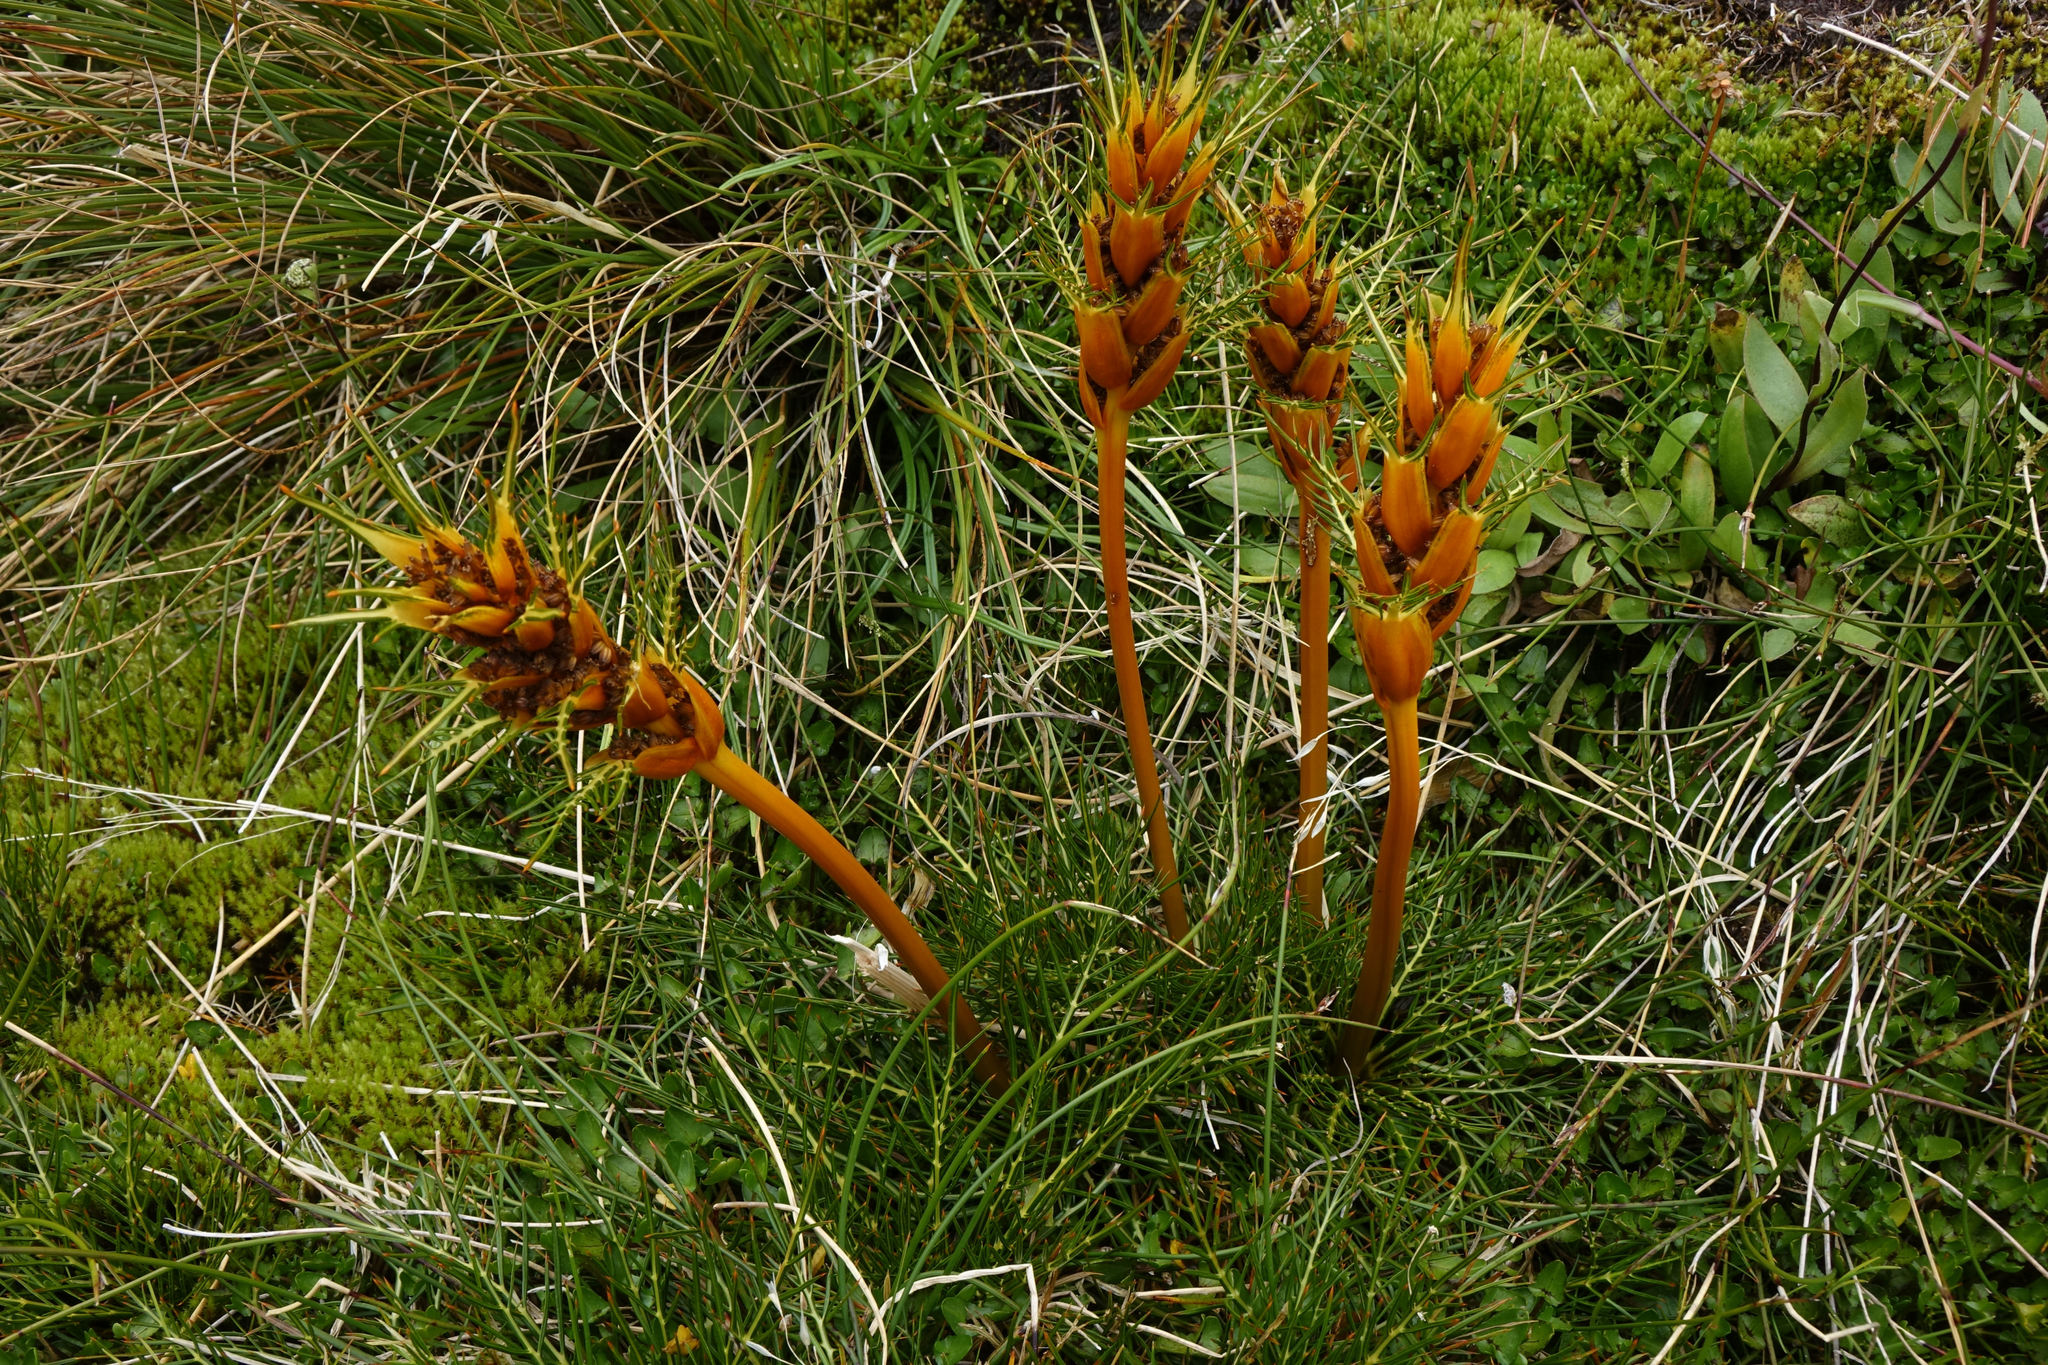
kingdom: Plantae
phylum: Tracheophyta
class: Magnoliopsida
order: Apiales
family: Apiaceae
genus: Aciphylla
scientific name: Aciphylla pinnatifida
